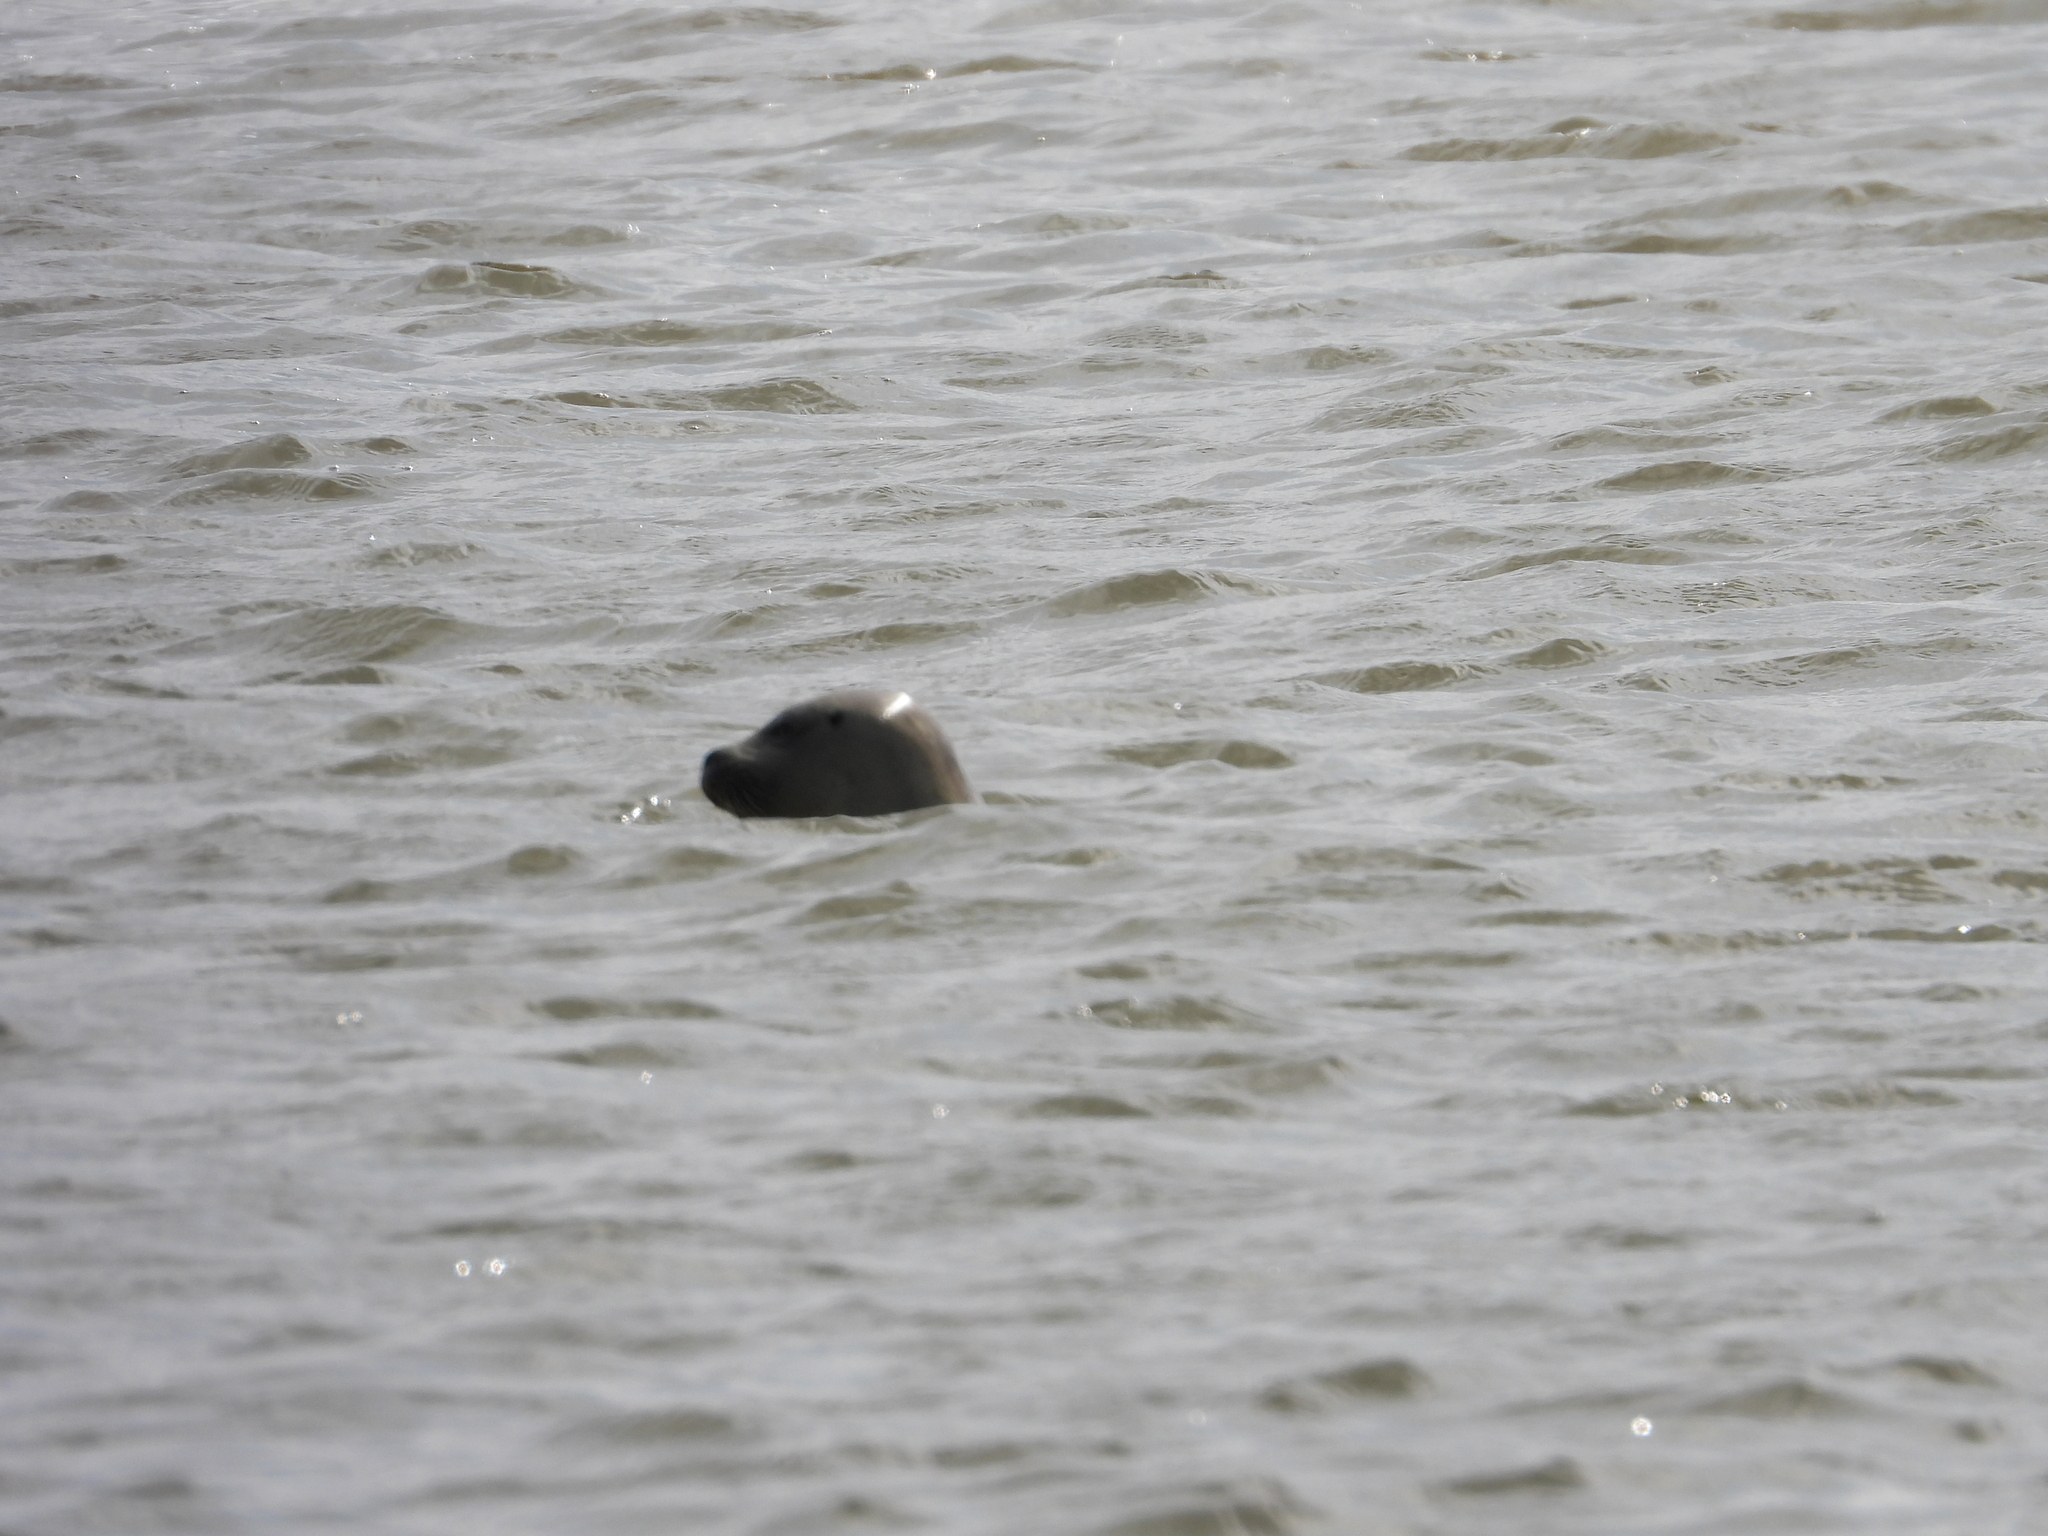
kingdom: Animalia
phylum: Chordata
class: Mammalia
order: Carnivora
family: Phocidae
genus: Phoca
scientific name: Phoca vitulina
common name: Harbor seal
